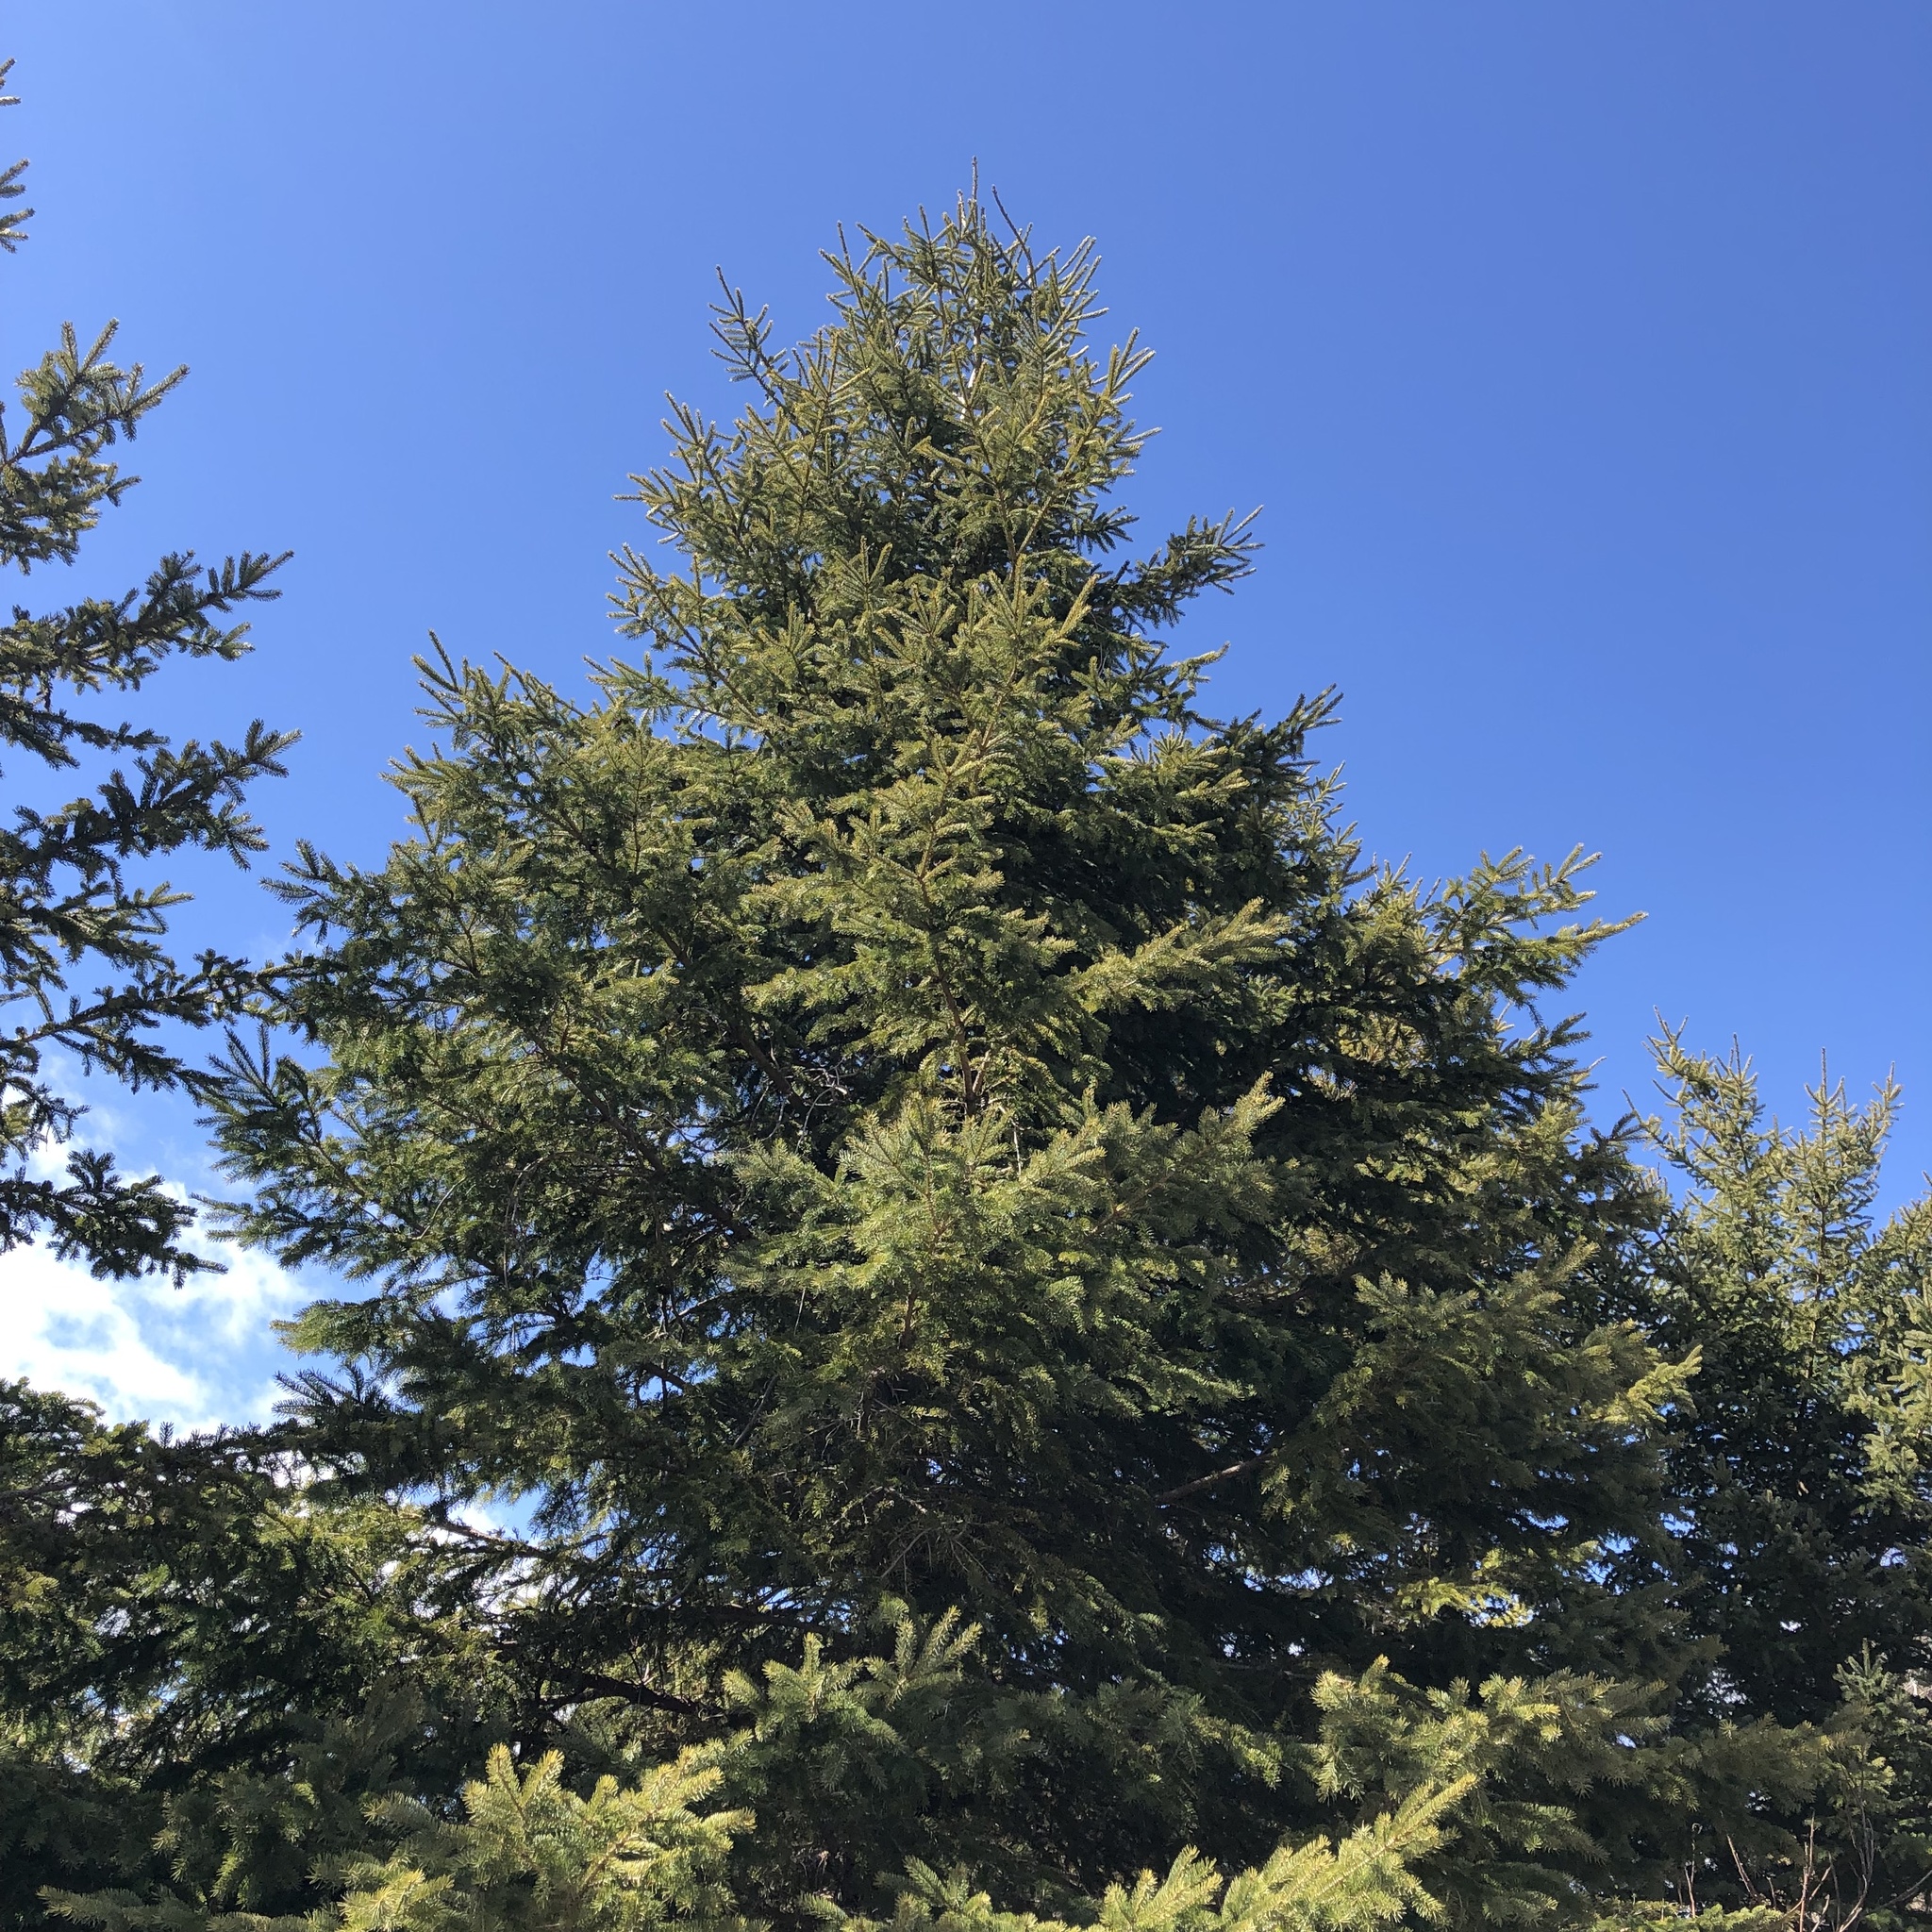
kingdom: Plantae
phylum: Tracheophyta
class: Pinopsida
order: Pinales
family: Pinaceae
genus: Picea
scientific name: Picea glauca
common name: White spruce
